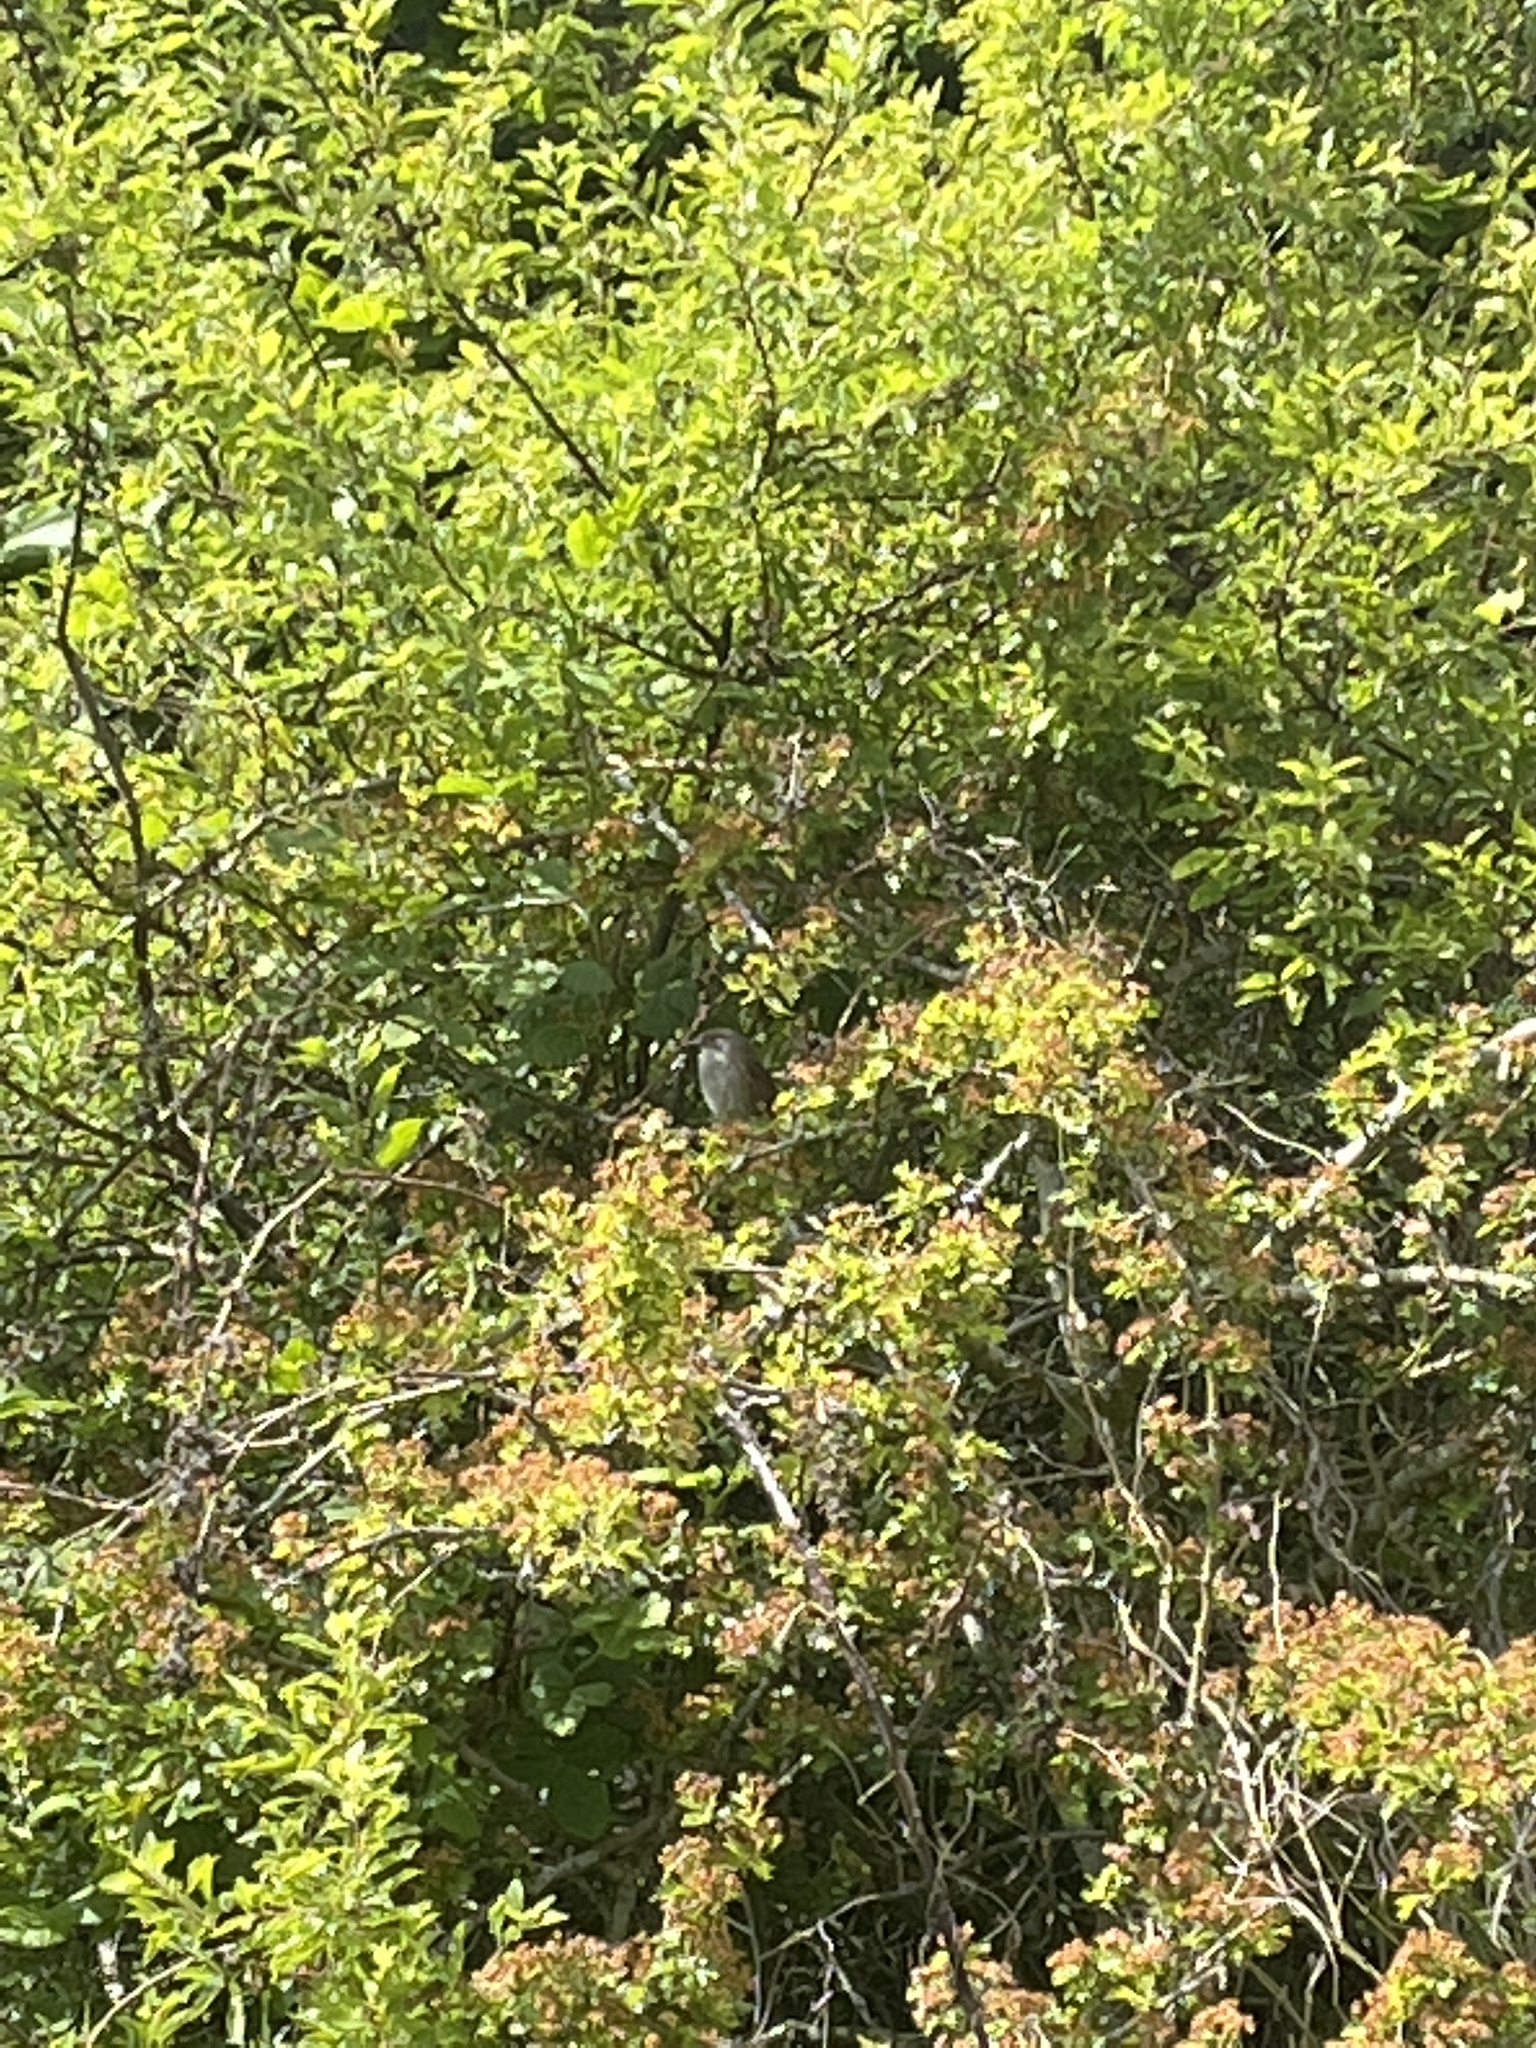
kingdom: Animalia
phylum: Chordata
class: Aves
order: Passeriformes
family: Prunellidae
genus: Prunella
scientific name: Prunella modularis
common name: Dunnock
